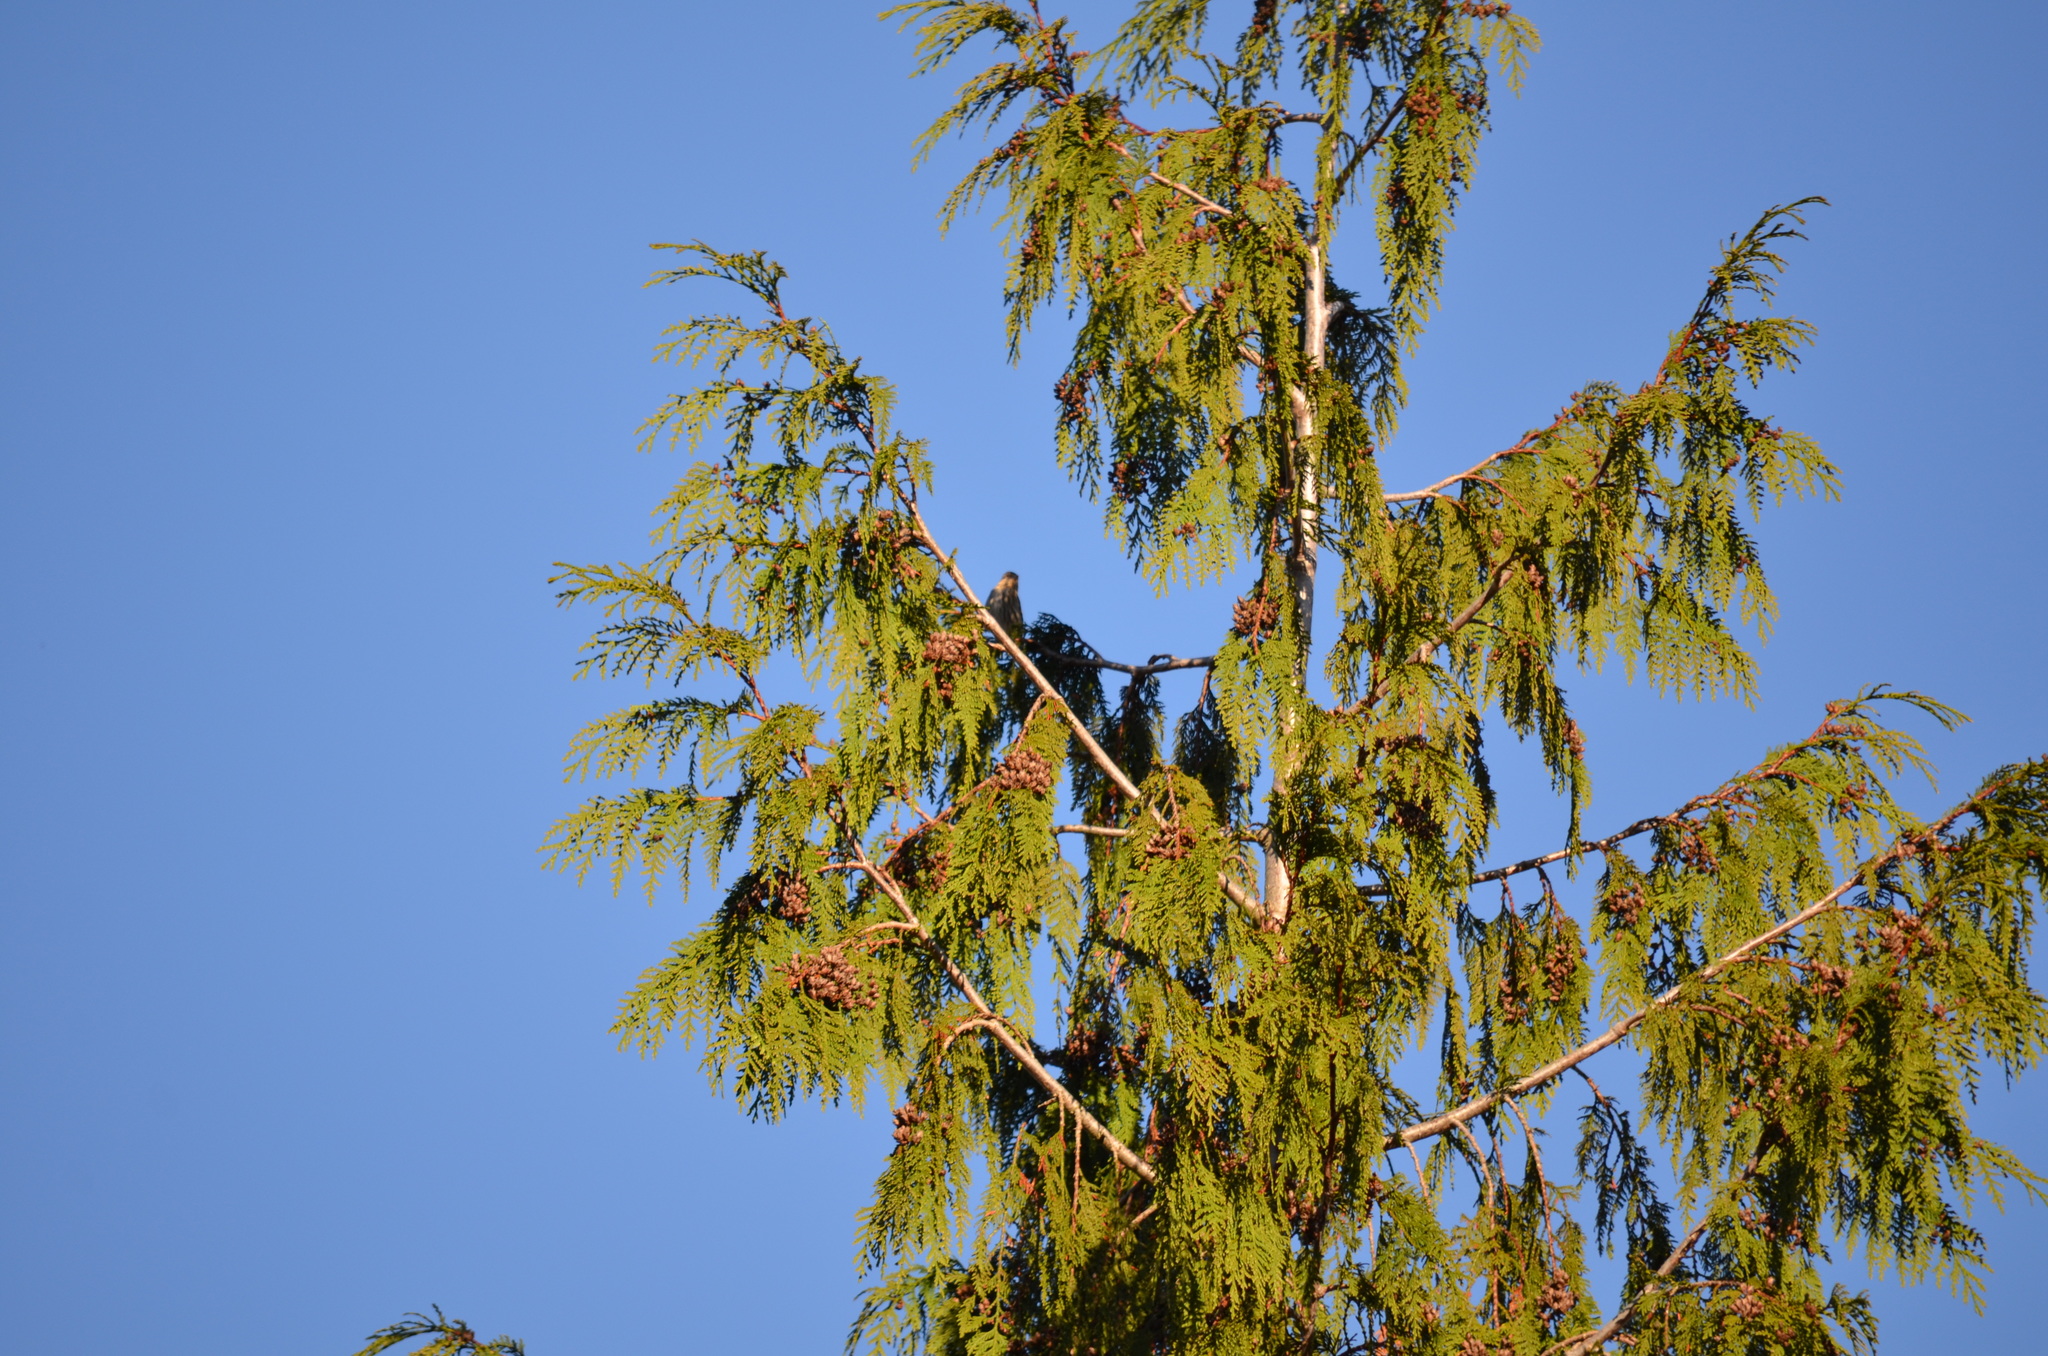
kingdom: Animalia
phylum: Chordata
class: Aves
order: Passeriformes
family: Fringillidae
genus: Haemorhous
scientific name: Haemorhous mexicanus
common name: House finch
